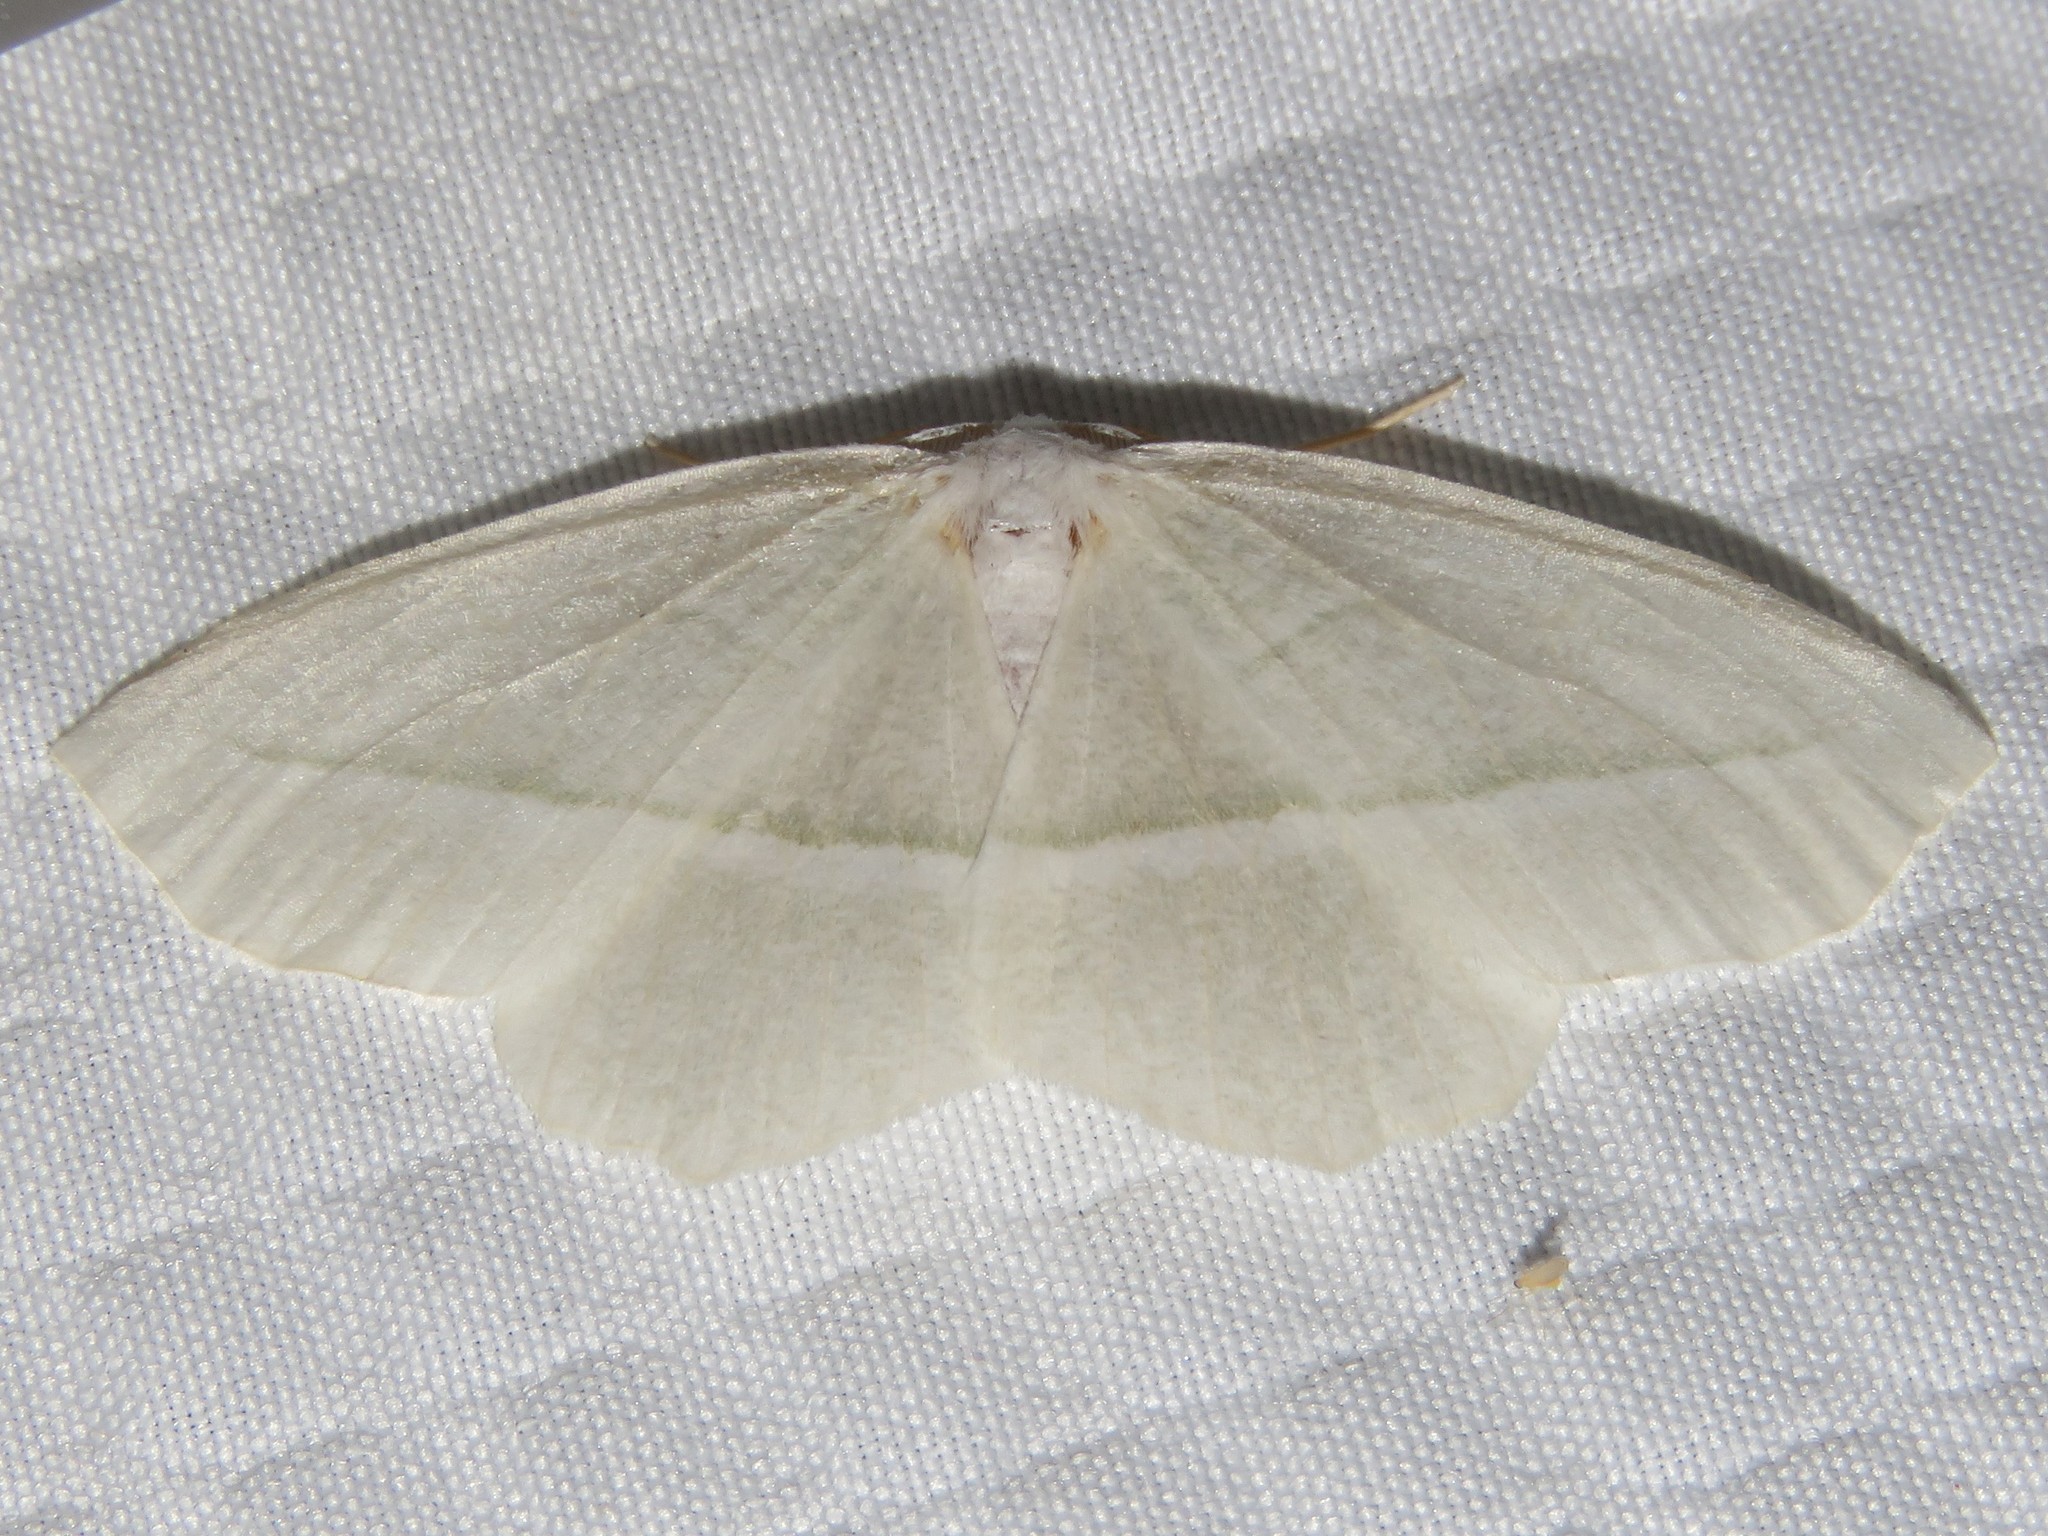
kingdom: Animalia
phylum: Arthropoda
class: Insecta
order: Lepidoptera
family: Geometridae
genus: Campaea
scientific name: Campaea perlata
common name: Fringed looper
